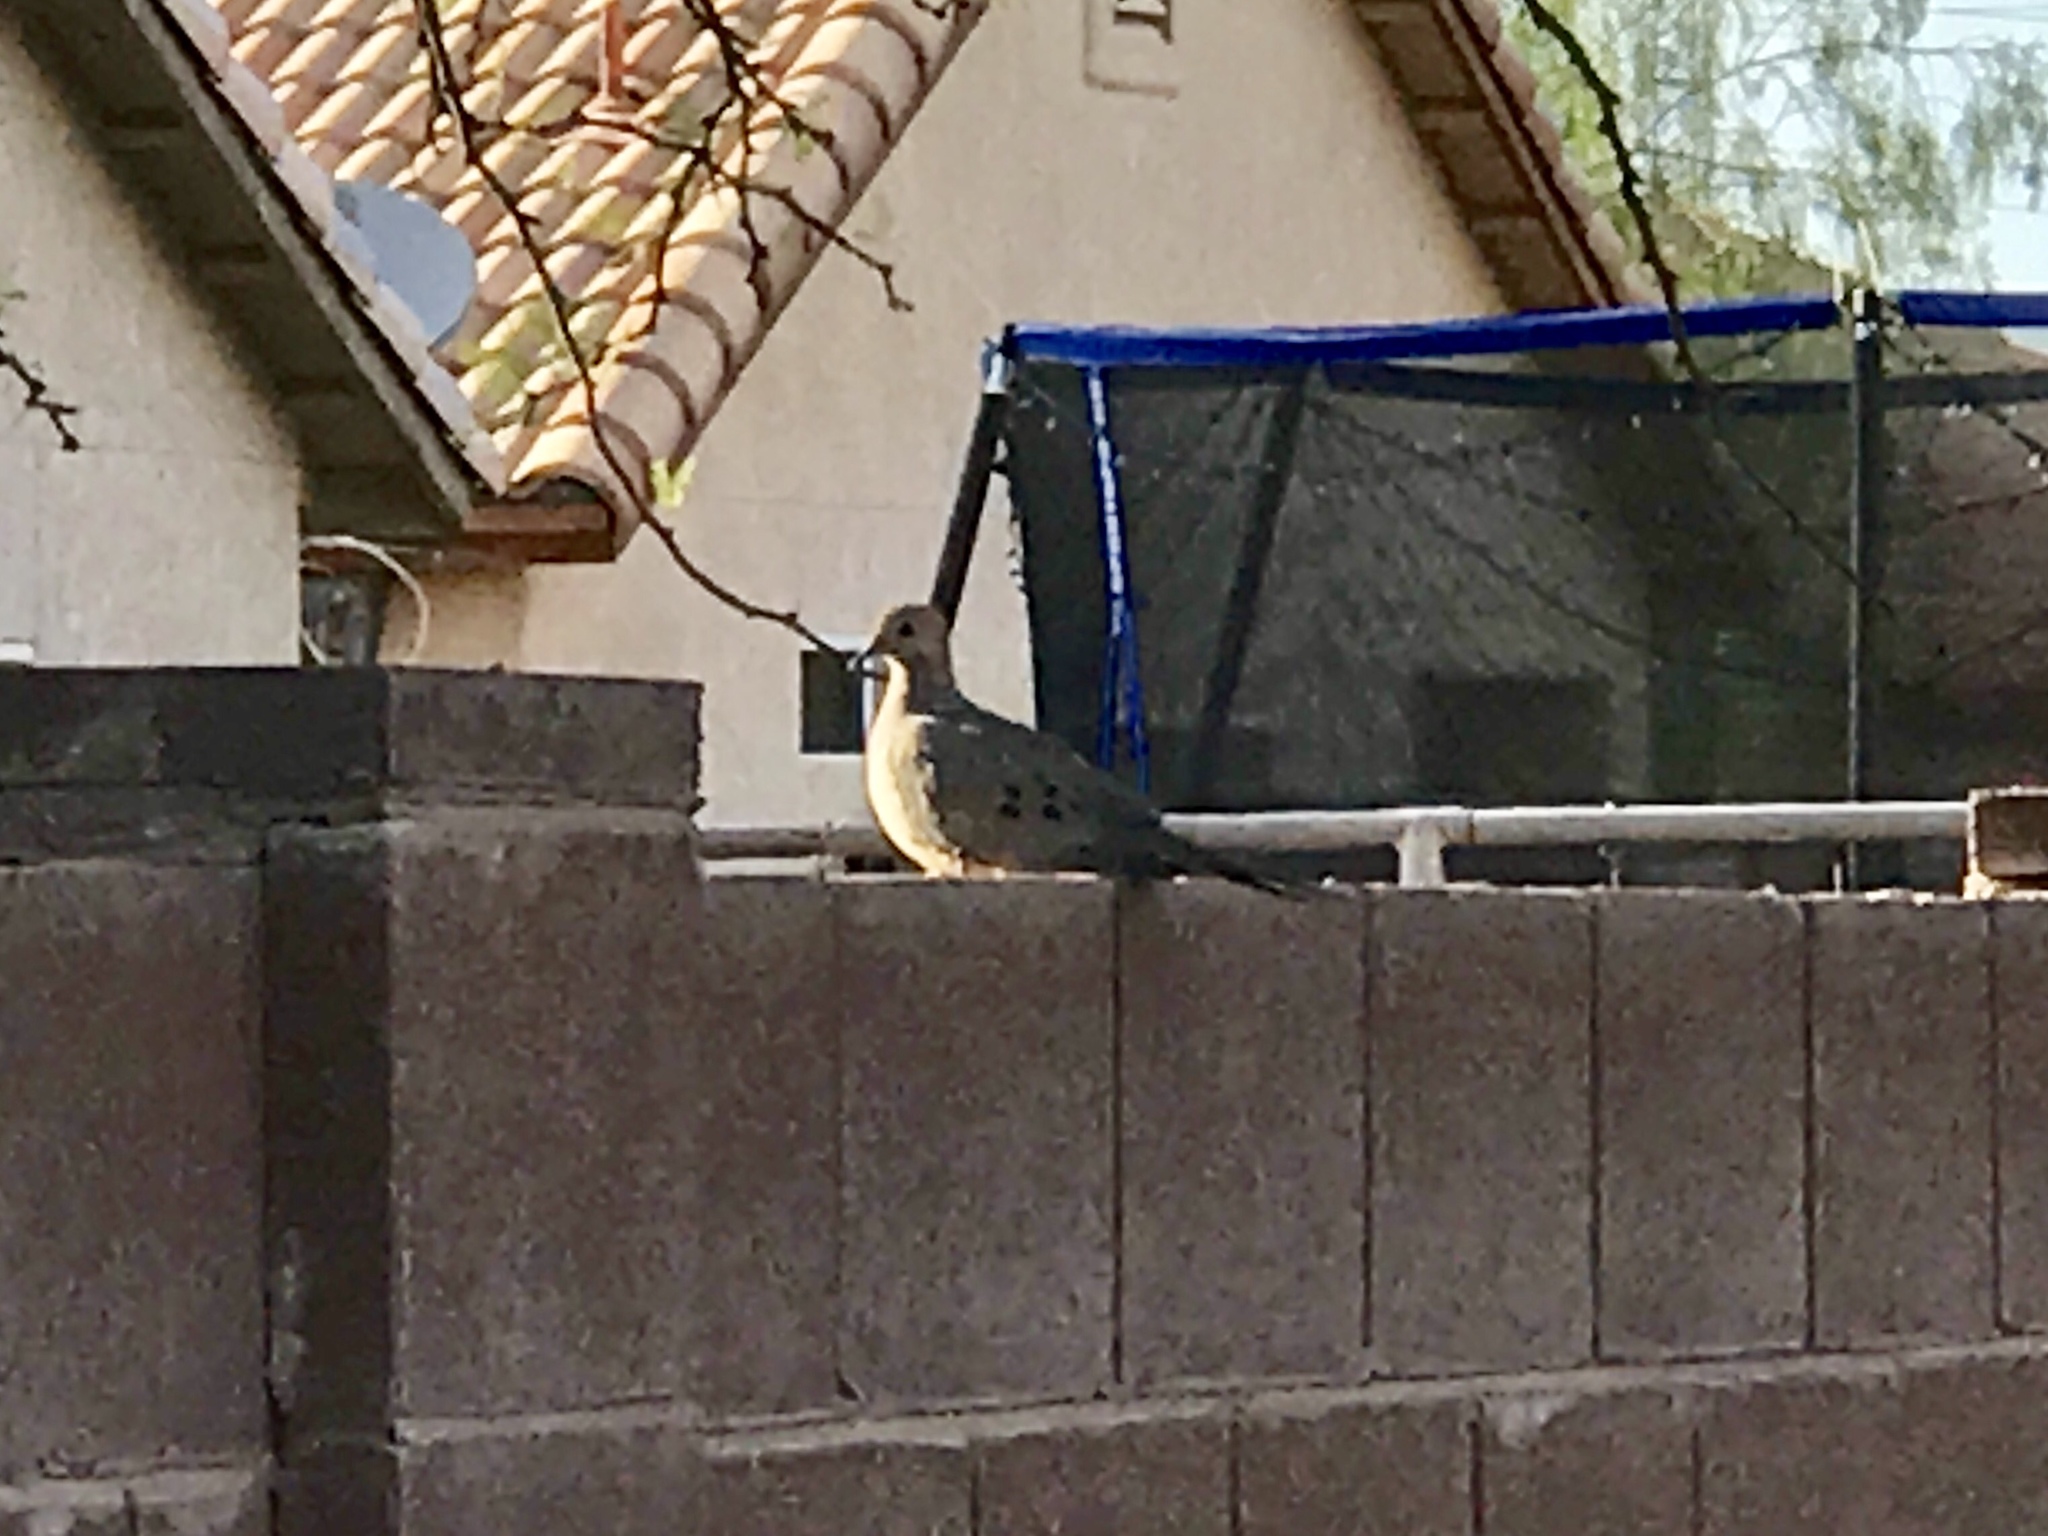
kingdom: Animalia
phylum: Chordata
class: Aves
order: Columbiformes
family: Columbidae
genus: Zenaida
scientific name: Zenaida macroura
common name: Mourning dove
